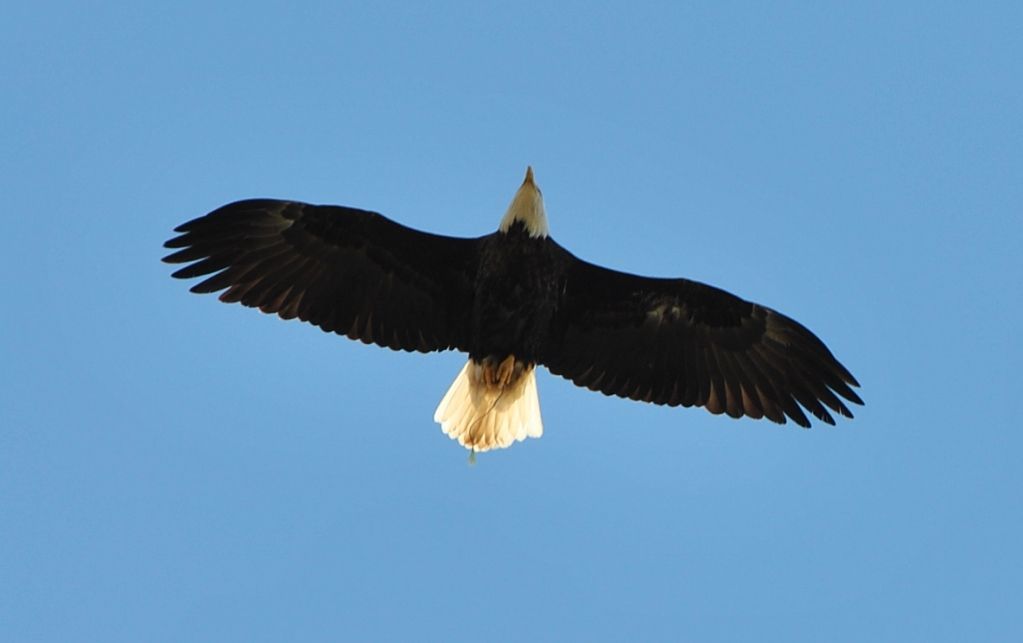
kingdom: Animalia
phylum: Chordata
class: Aves
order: Accipitriformes
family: Accipitridae
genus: Haliaeetus
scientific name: Haliaeetus leucocephalus
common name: Bald eagle
